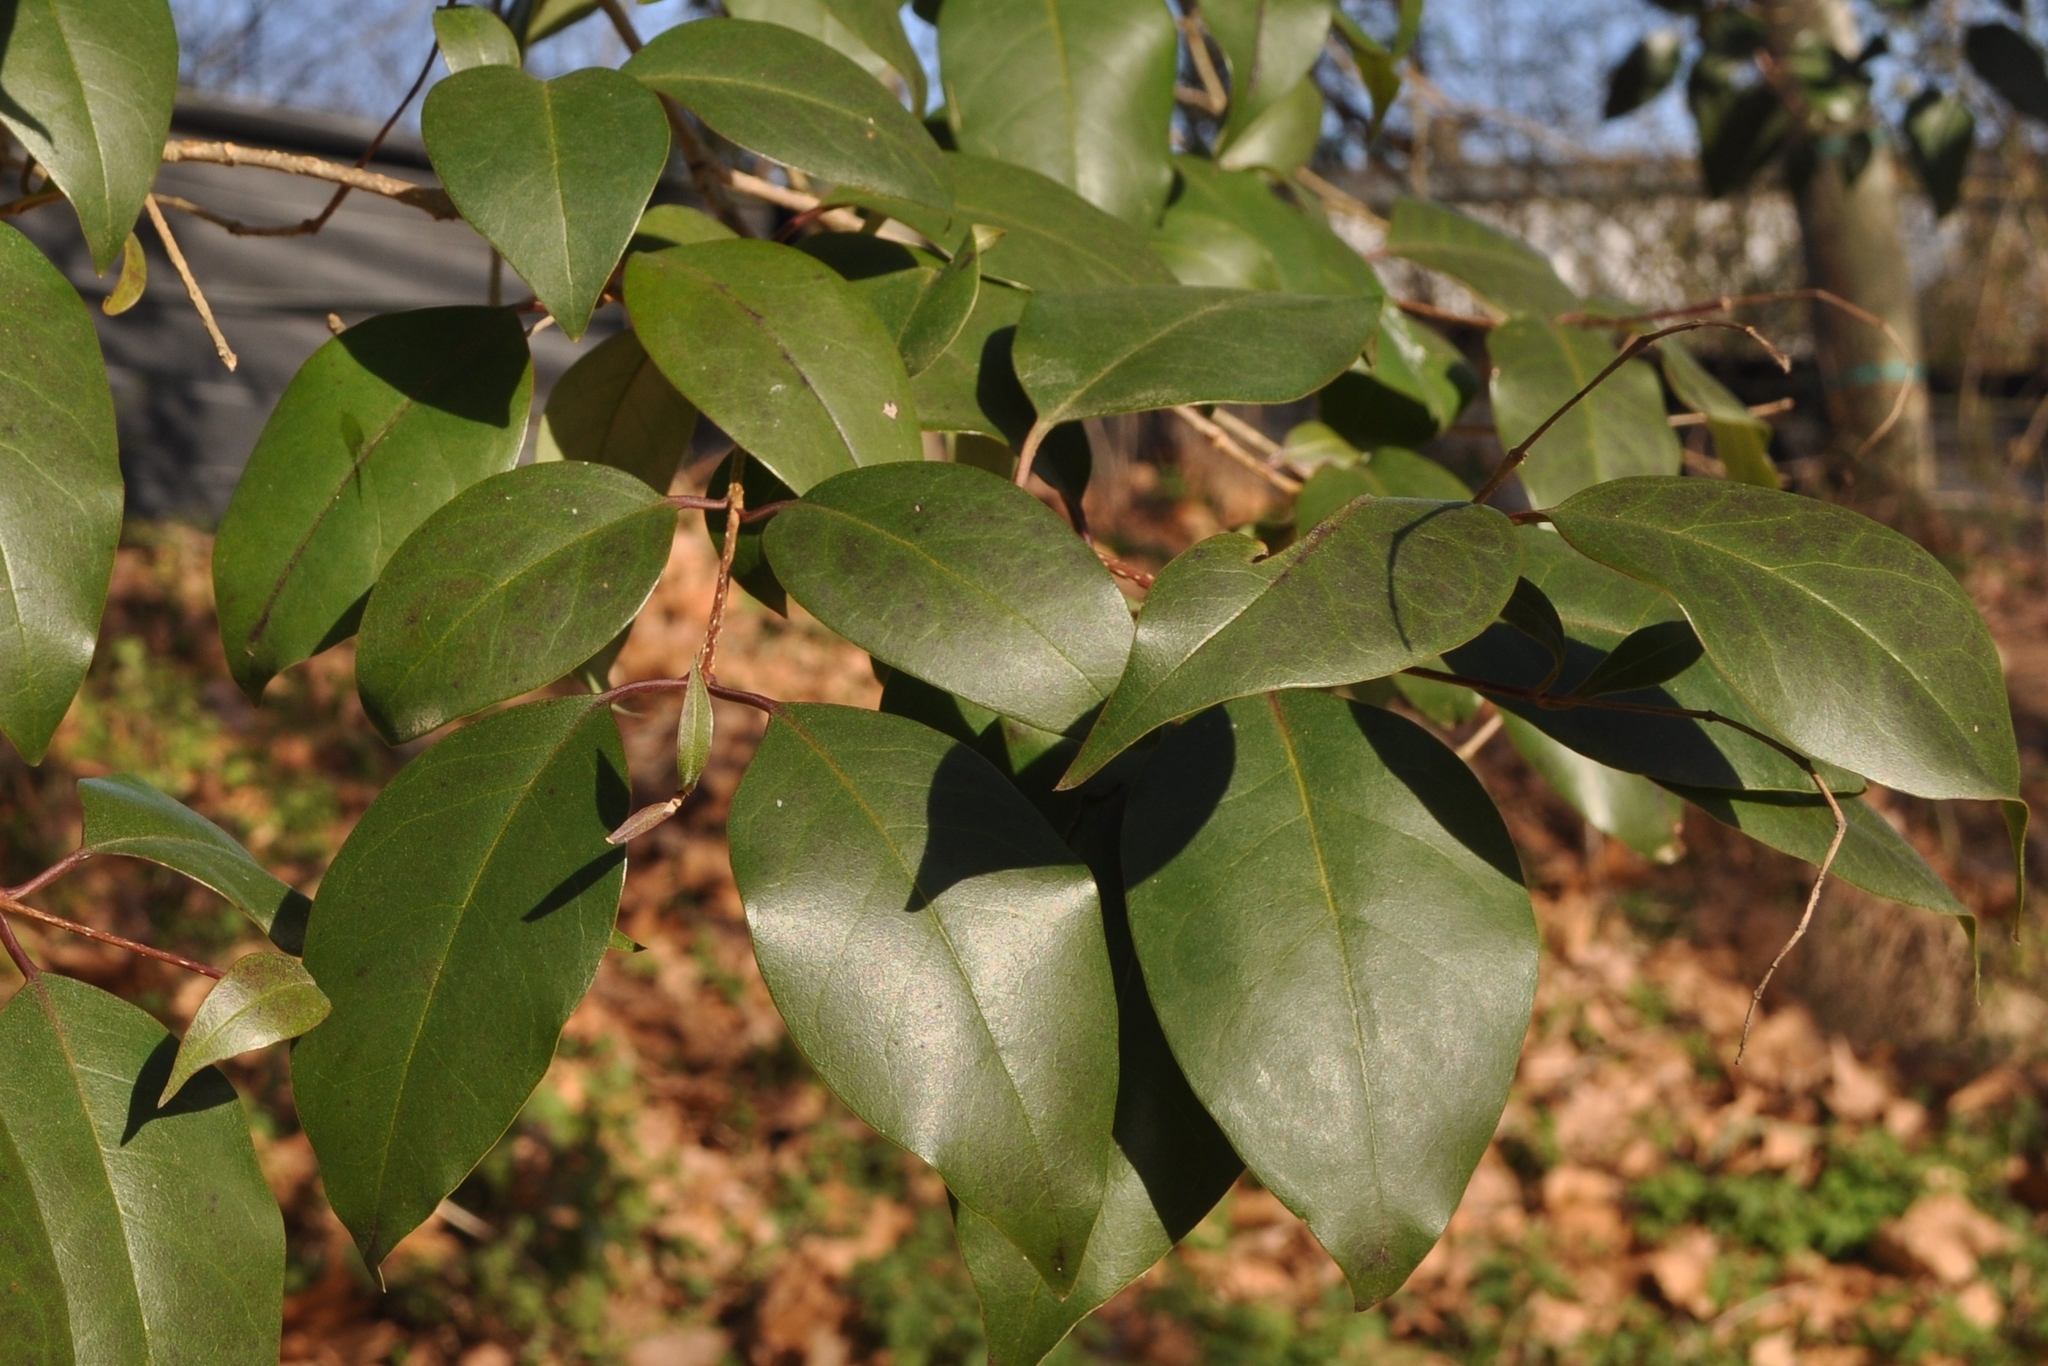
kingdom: Plantae
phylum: Tracheophyta
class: Magnoliopsida
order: Lamiales
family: Oleaceae
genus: Ligustrum
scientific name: Ligustrum lucidum
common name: Glossy privet
